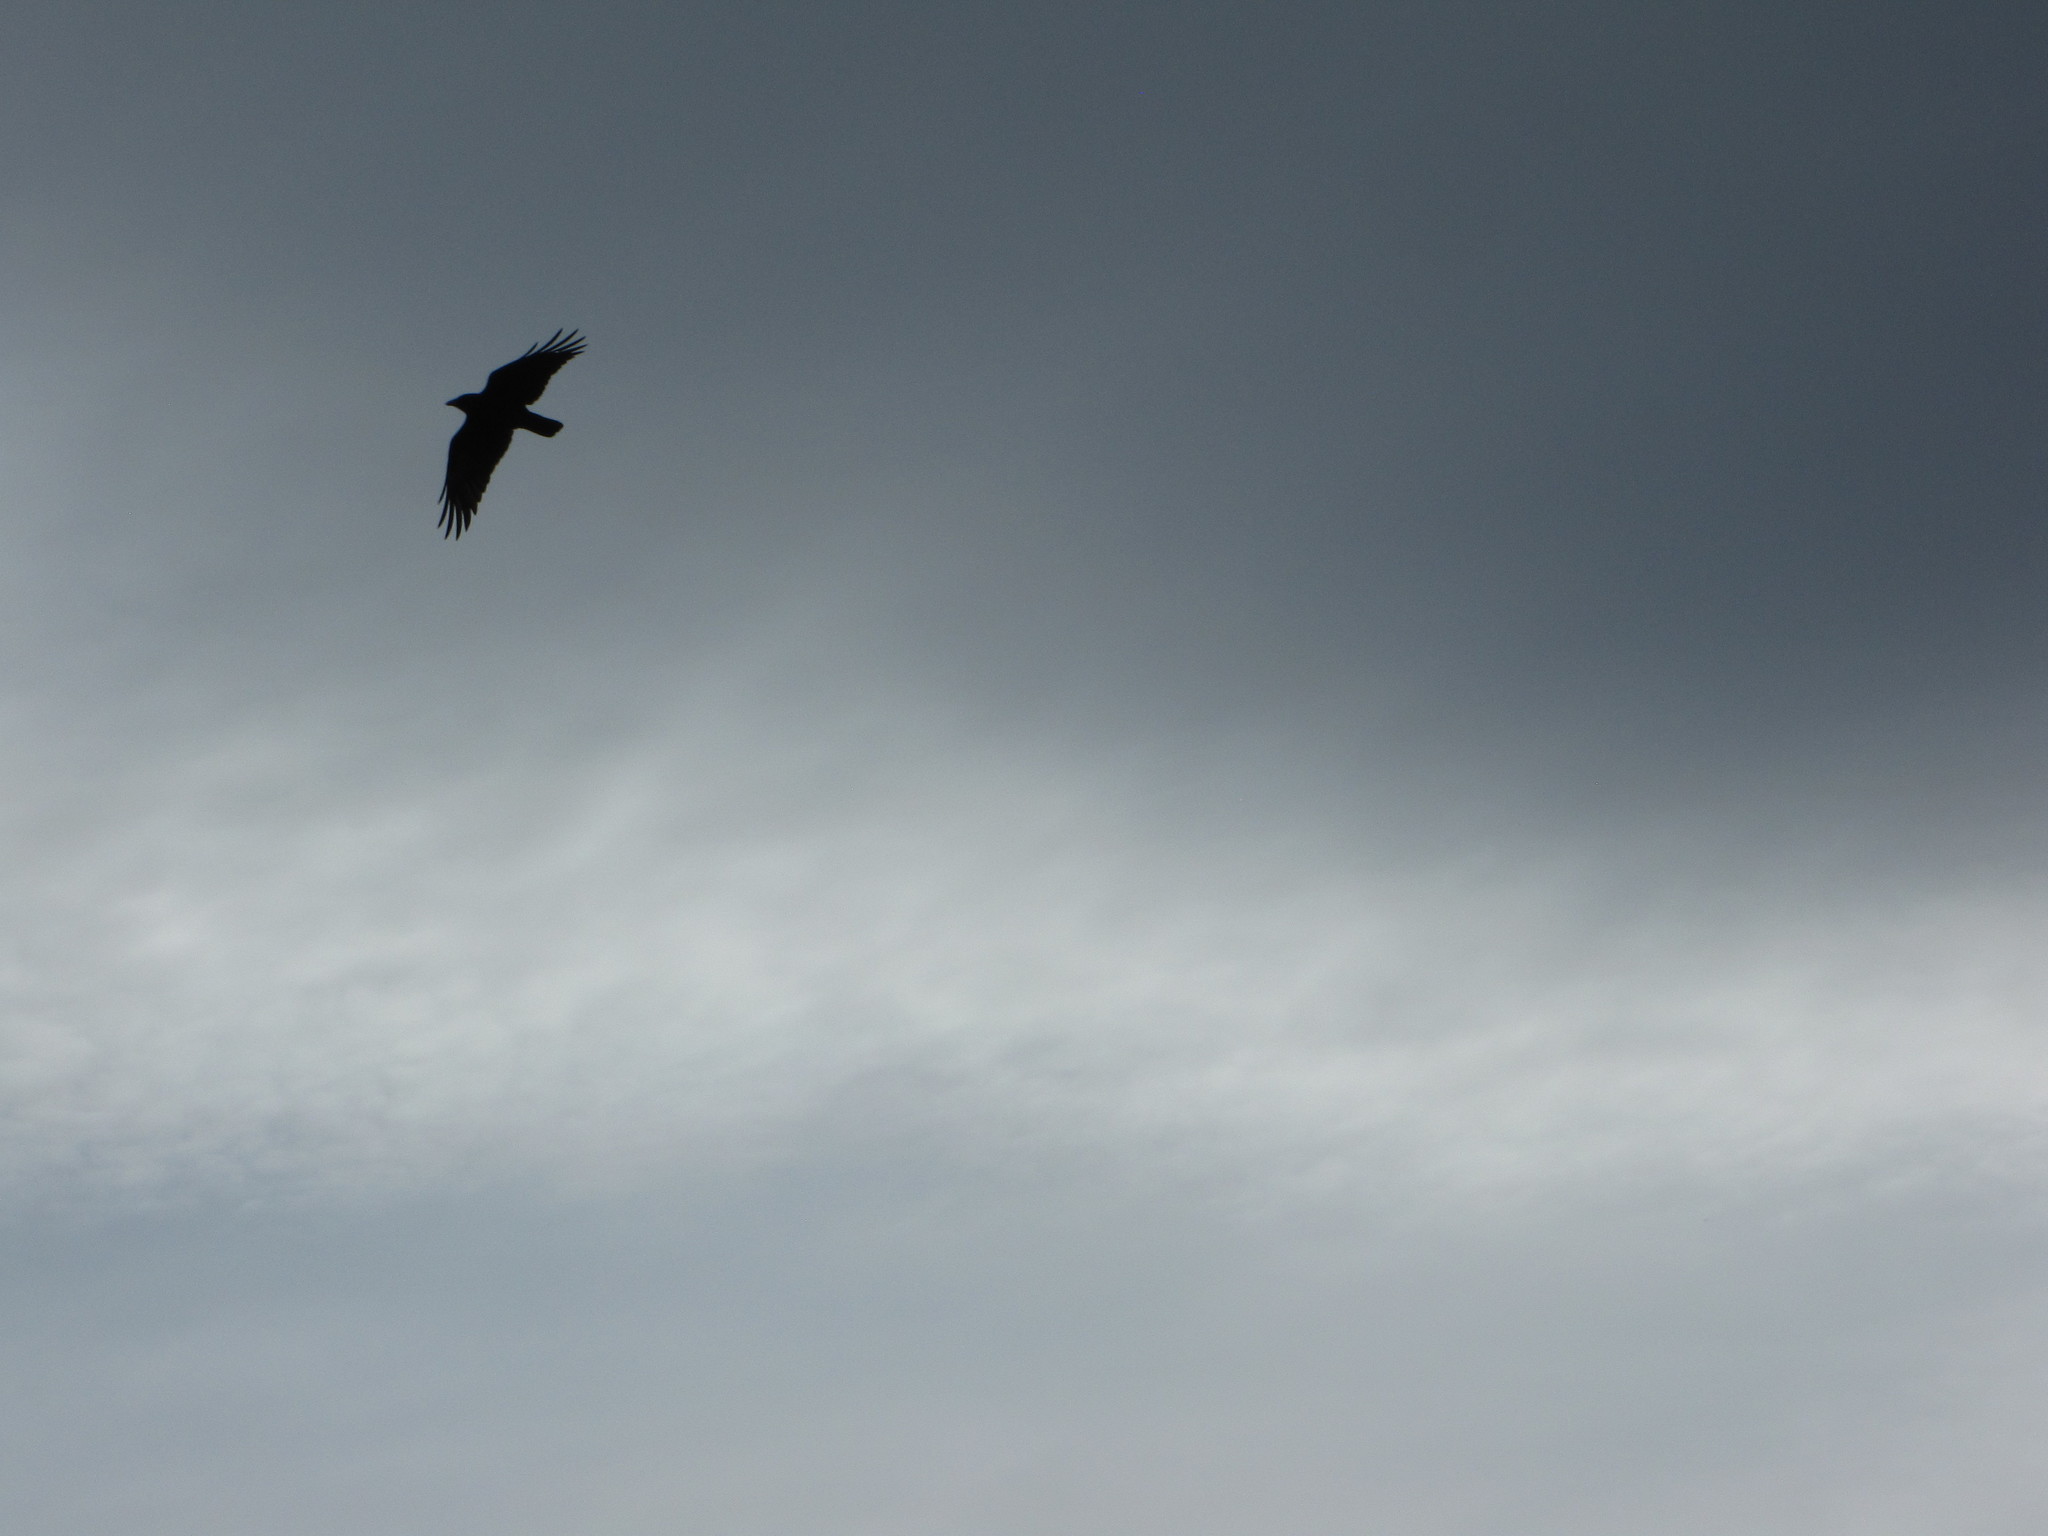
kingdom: Animalia
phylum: Chordata
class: Aves
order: Passeriformes
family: Corvidae
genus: Corvus
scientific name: Corvus brachyrhynchos
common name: American crow
